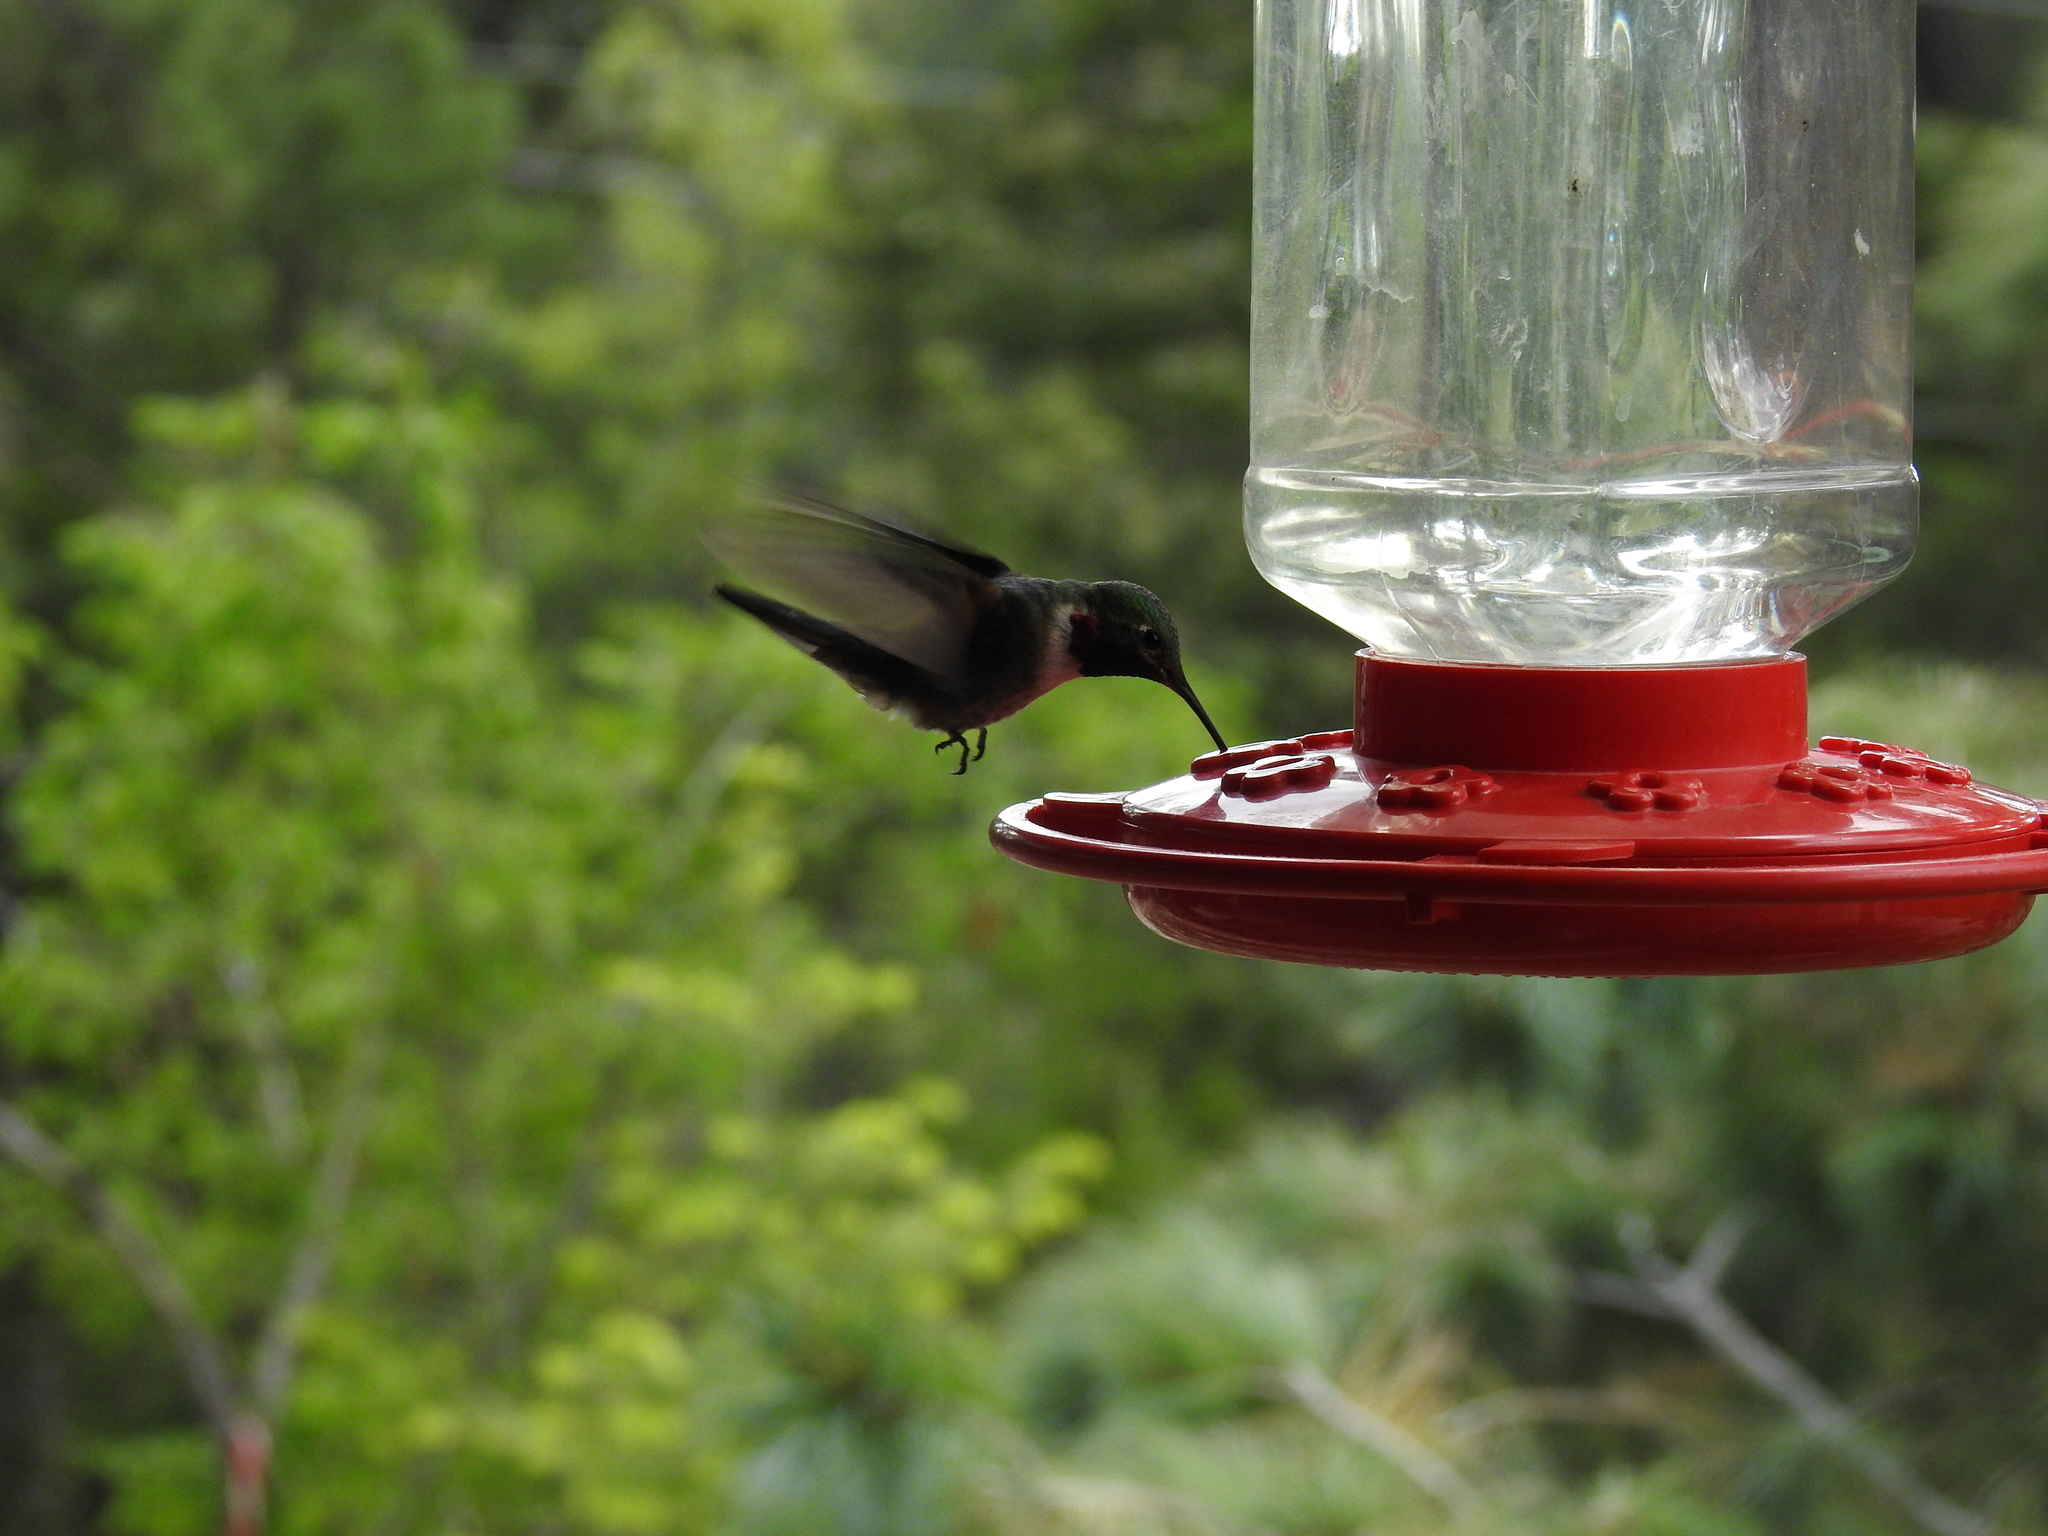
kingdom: Animalia
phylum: Chordata
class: Aves
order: Apodiformes
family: Trochilidae
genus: Selasphorus
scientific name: Selasphorus platycercus
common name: Broad-tailed hummingbird
